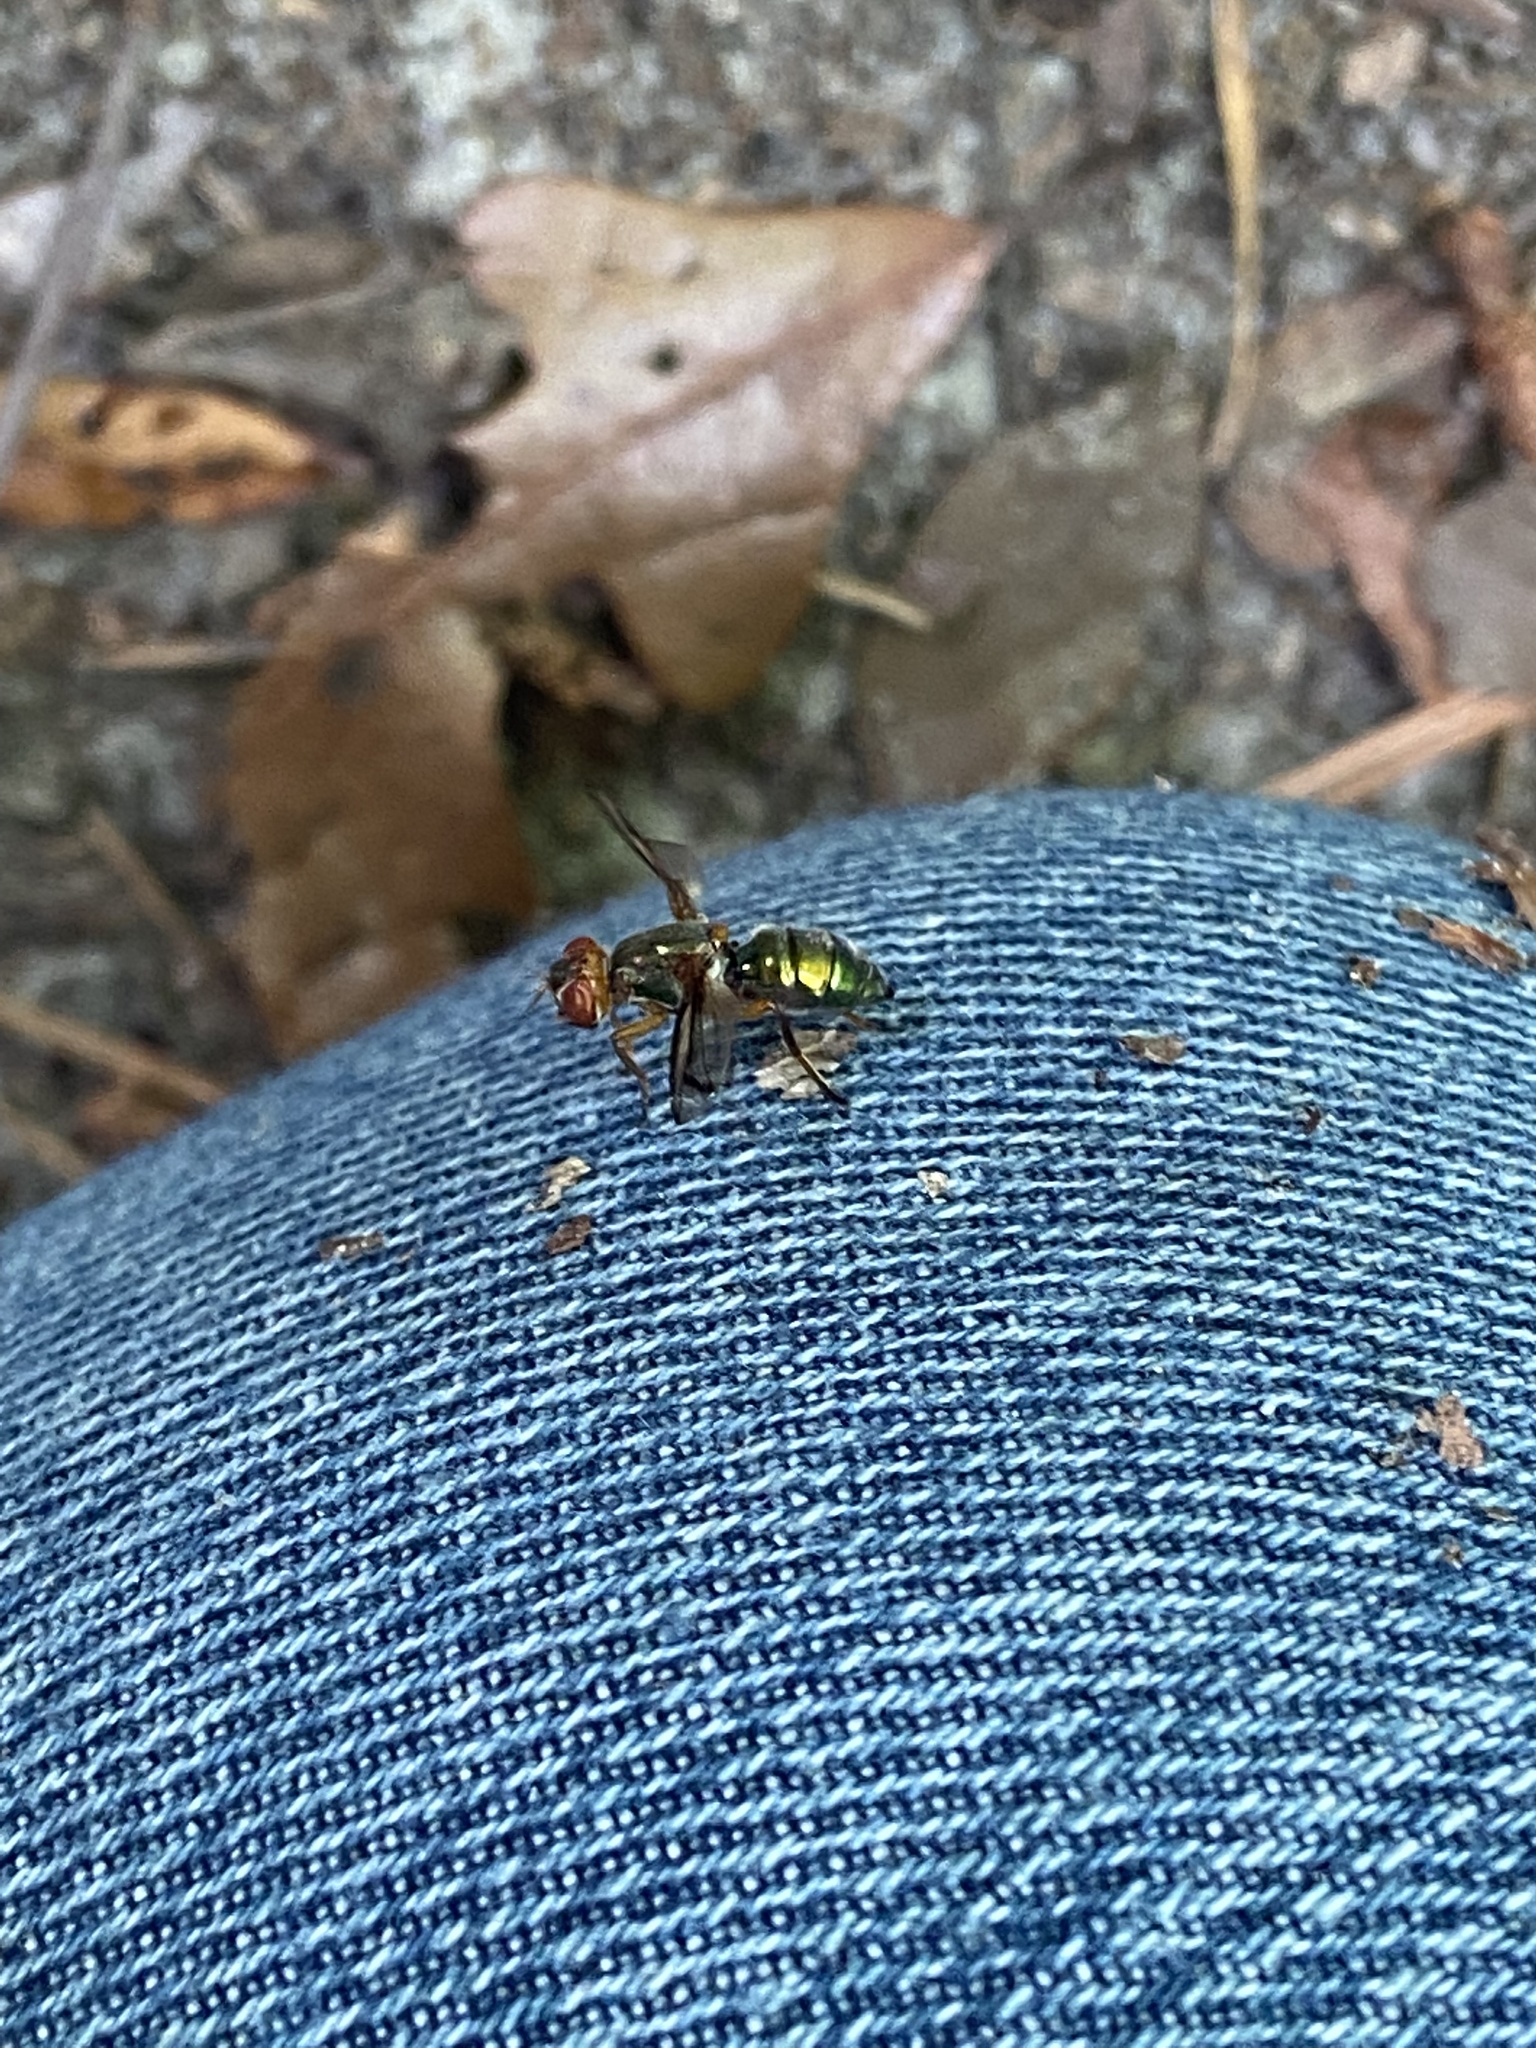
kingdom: Animalia
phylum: Arthropoda
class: Insecta
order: Diptera
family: Platystomatidae
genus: Senopterina
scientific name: Senopterina caerulescens
